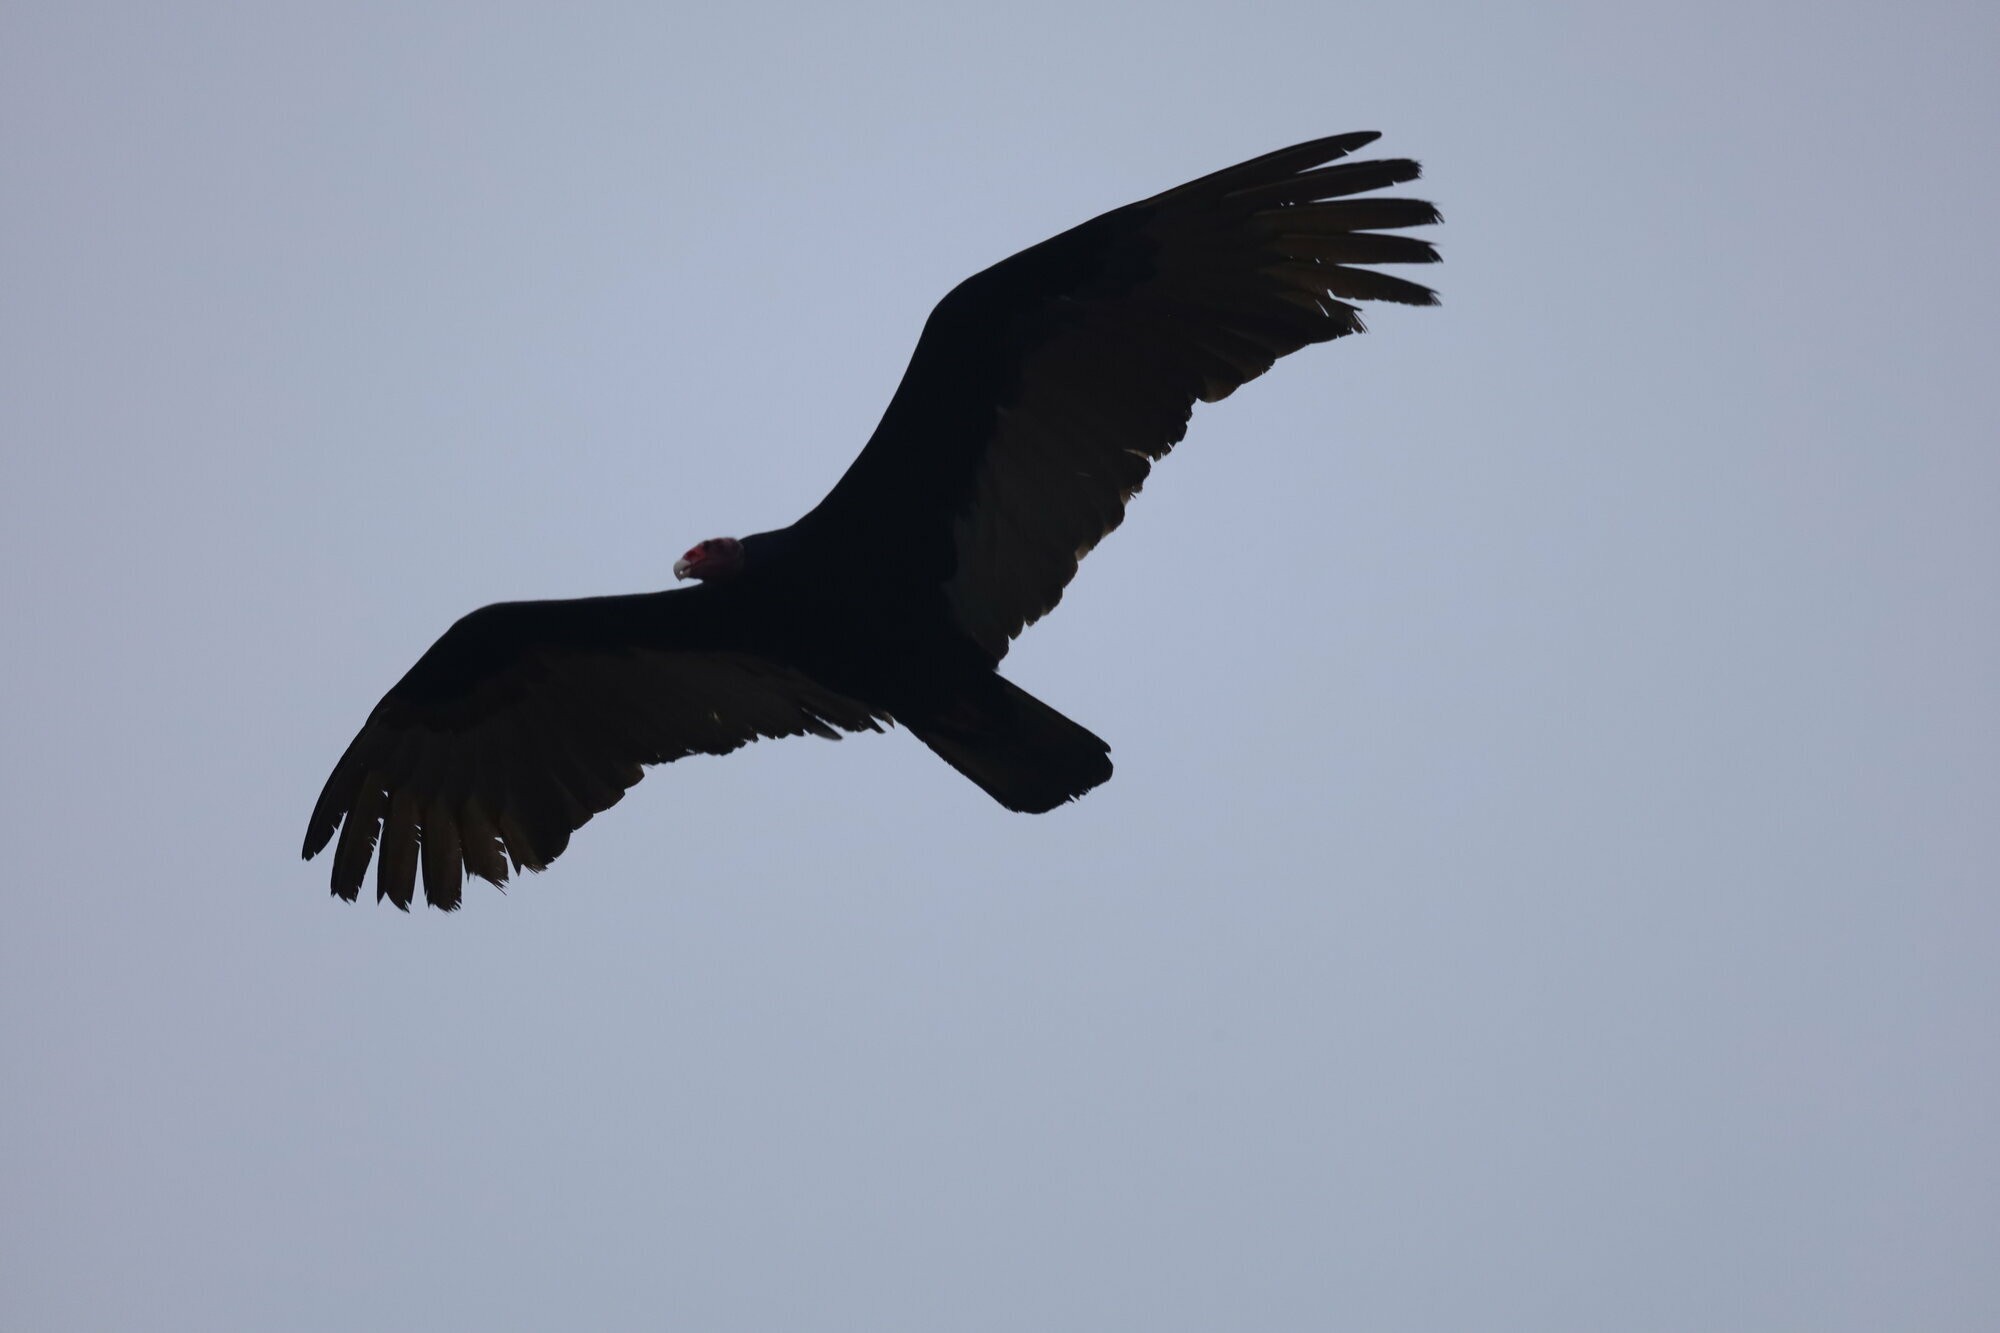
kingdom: Animalia
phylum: Chordata
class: Aves
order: Accipitriformes
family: Cathartidae
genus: Cathartes
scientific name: Cathartes aura
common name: Turkey vulture
